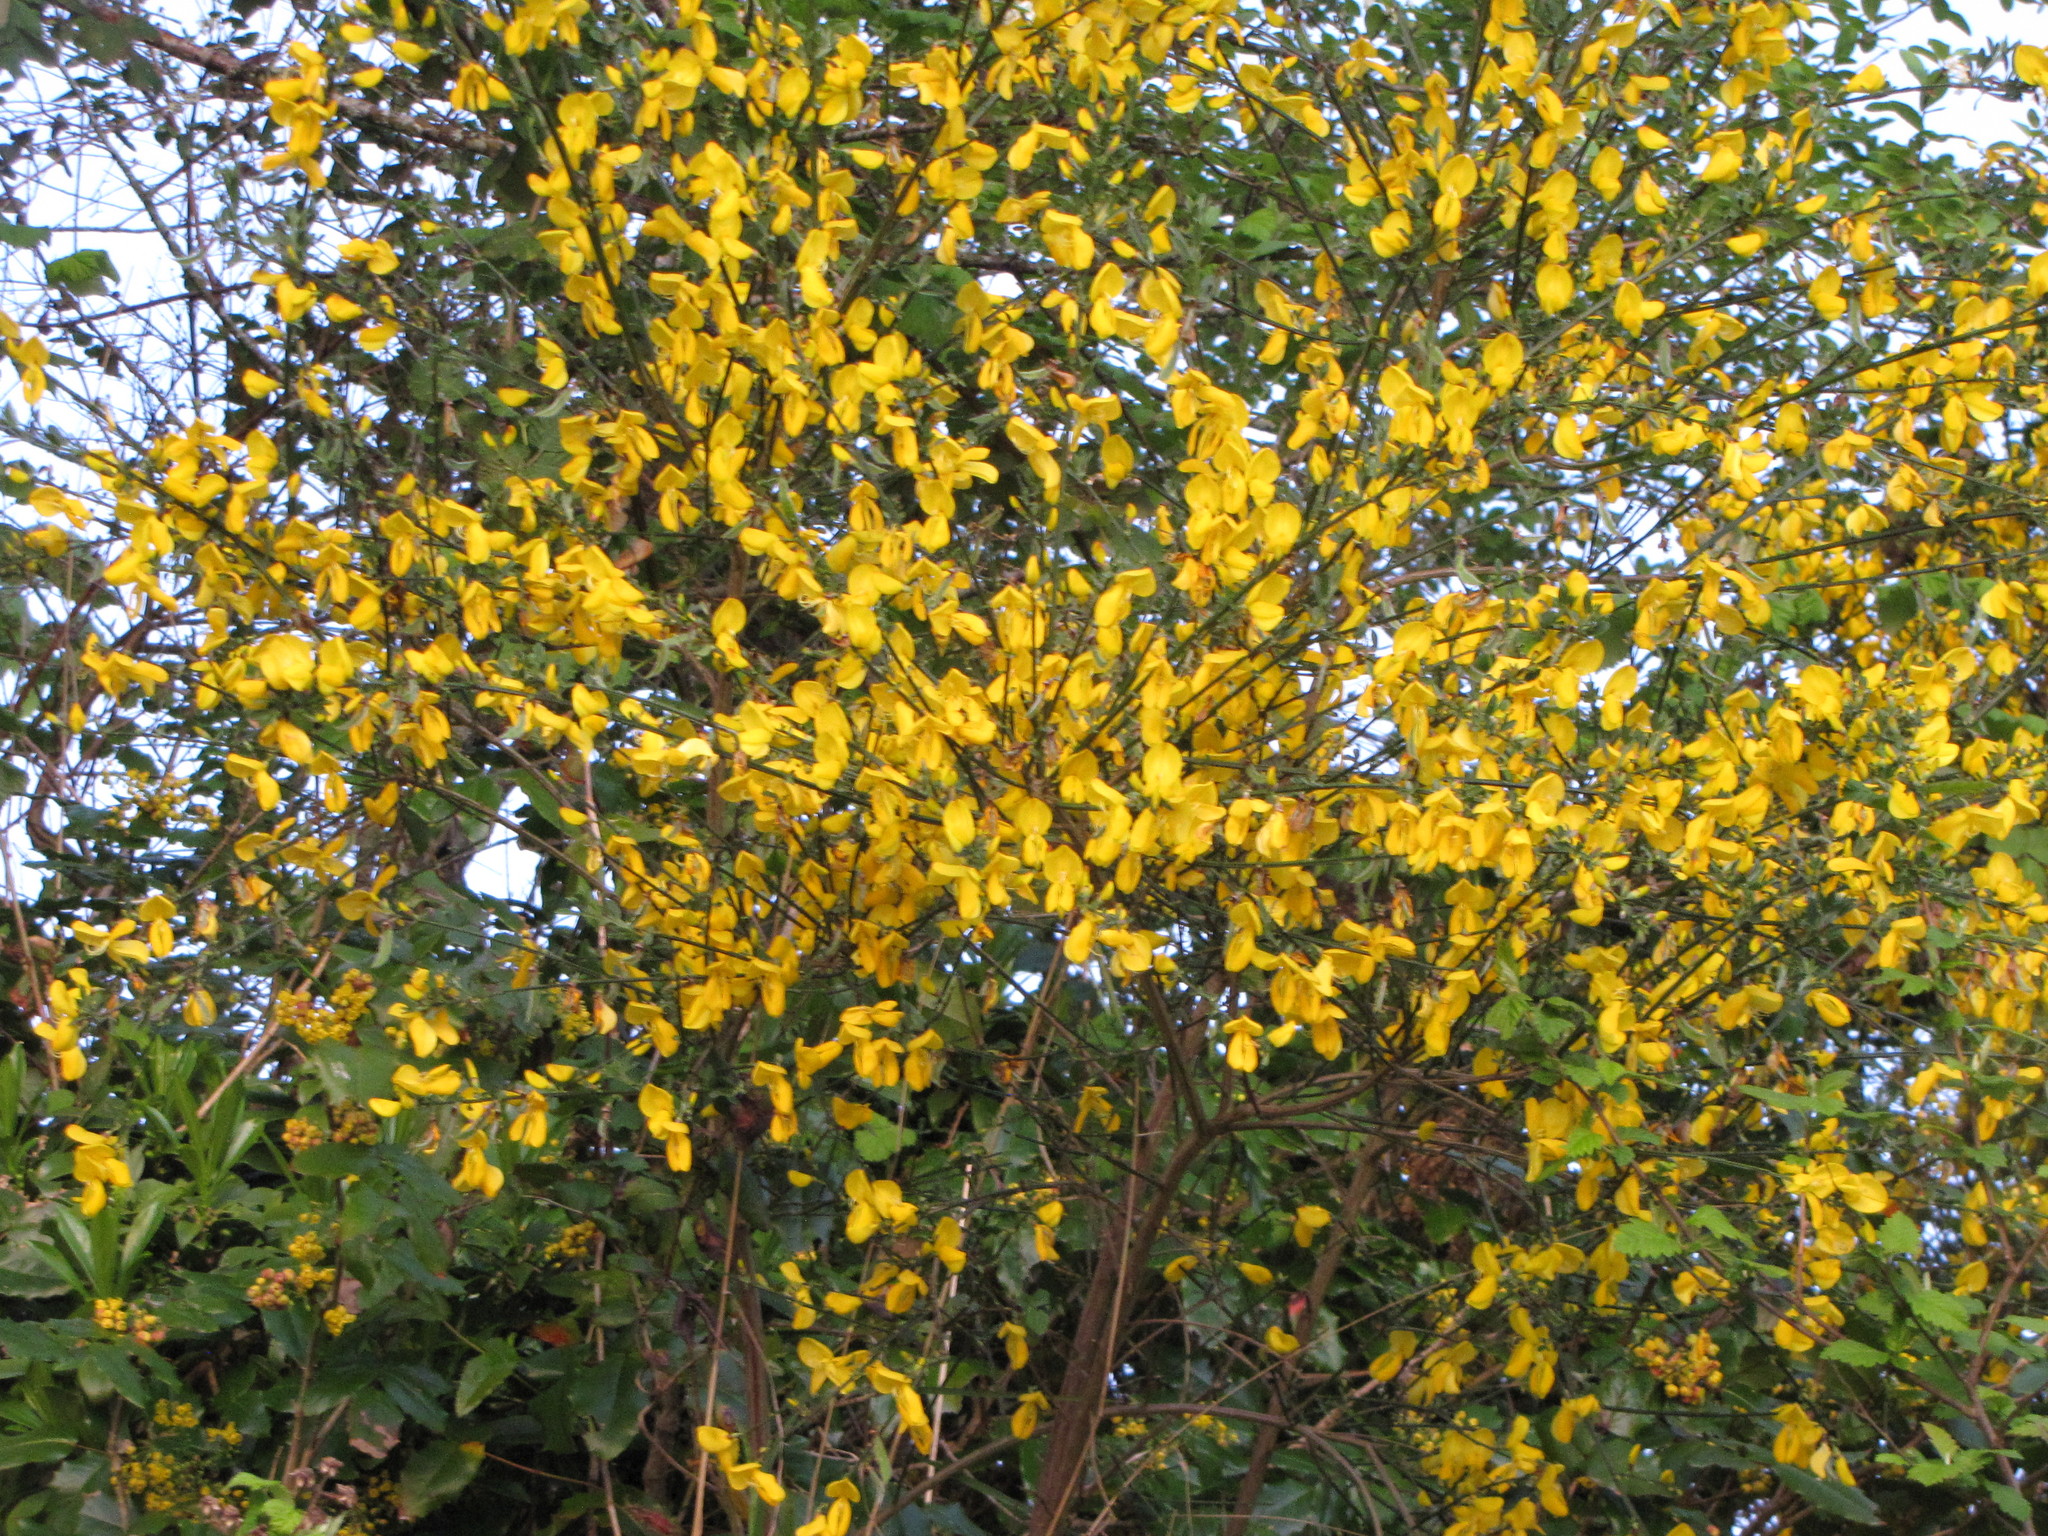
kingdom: Plantae
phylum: Tracheophyta
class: Magnoliopsida
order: Fabales
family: Fabaceae
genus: Cytisus
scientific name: Cytisus scoparius
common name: Scotch broom
